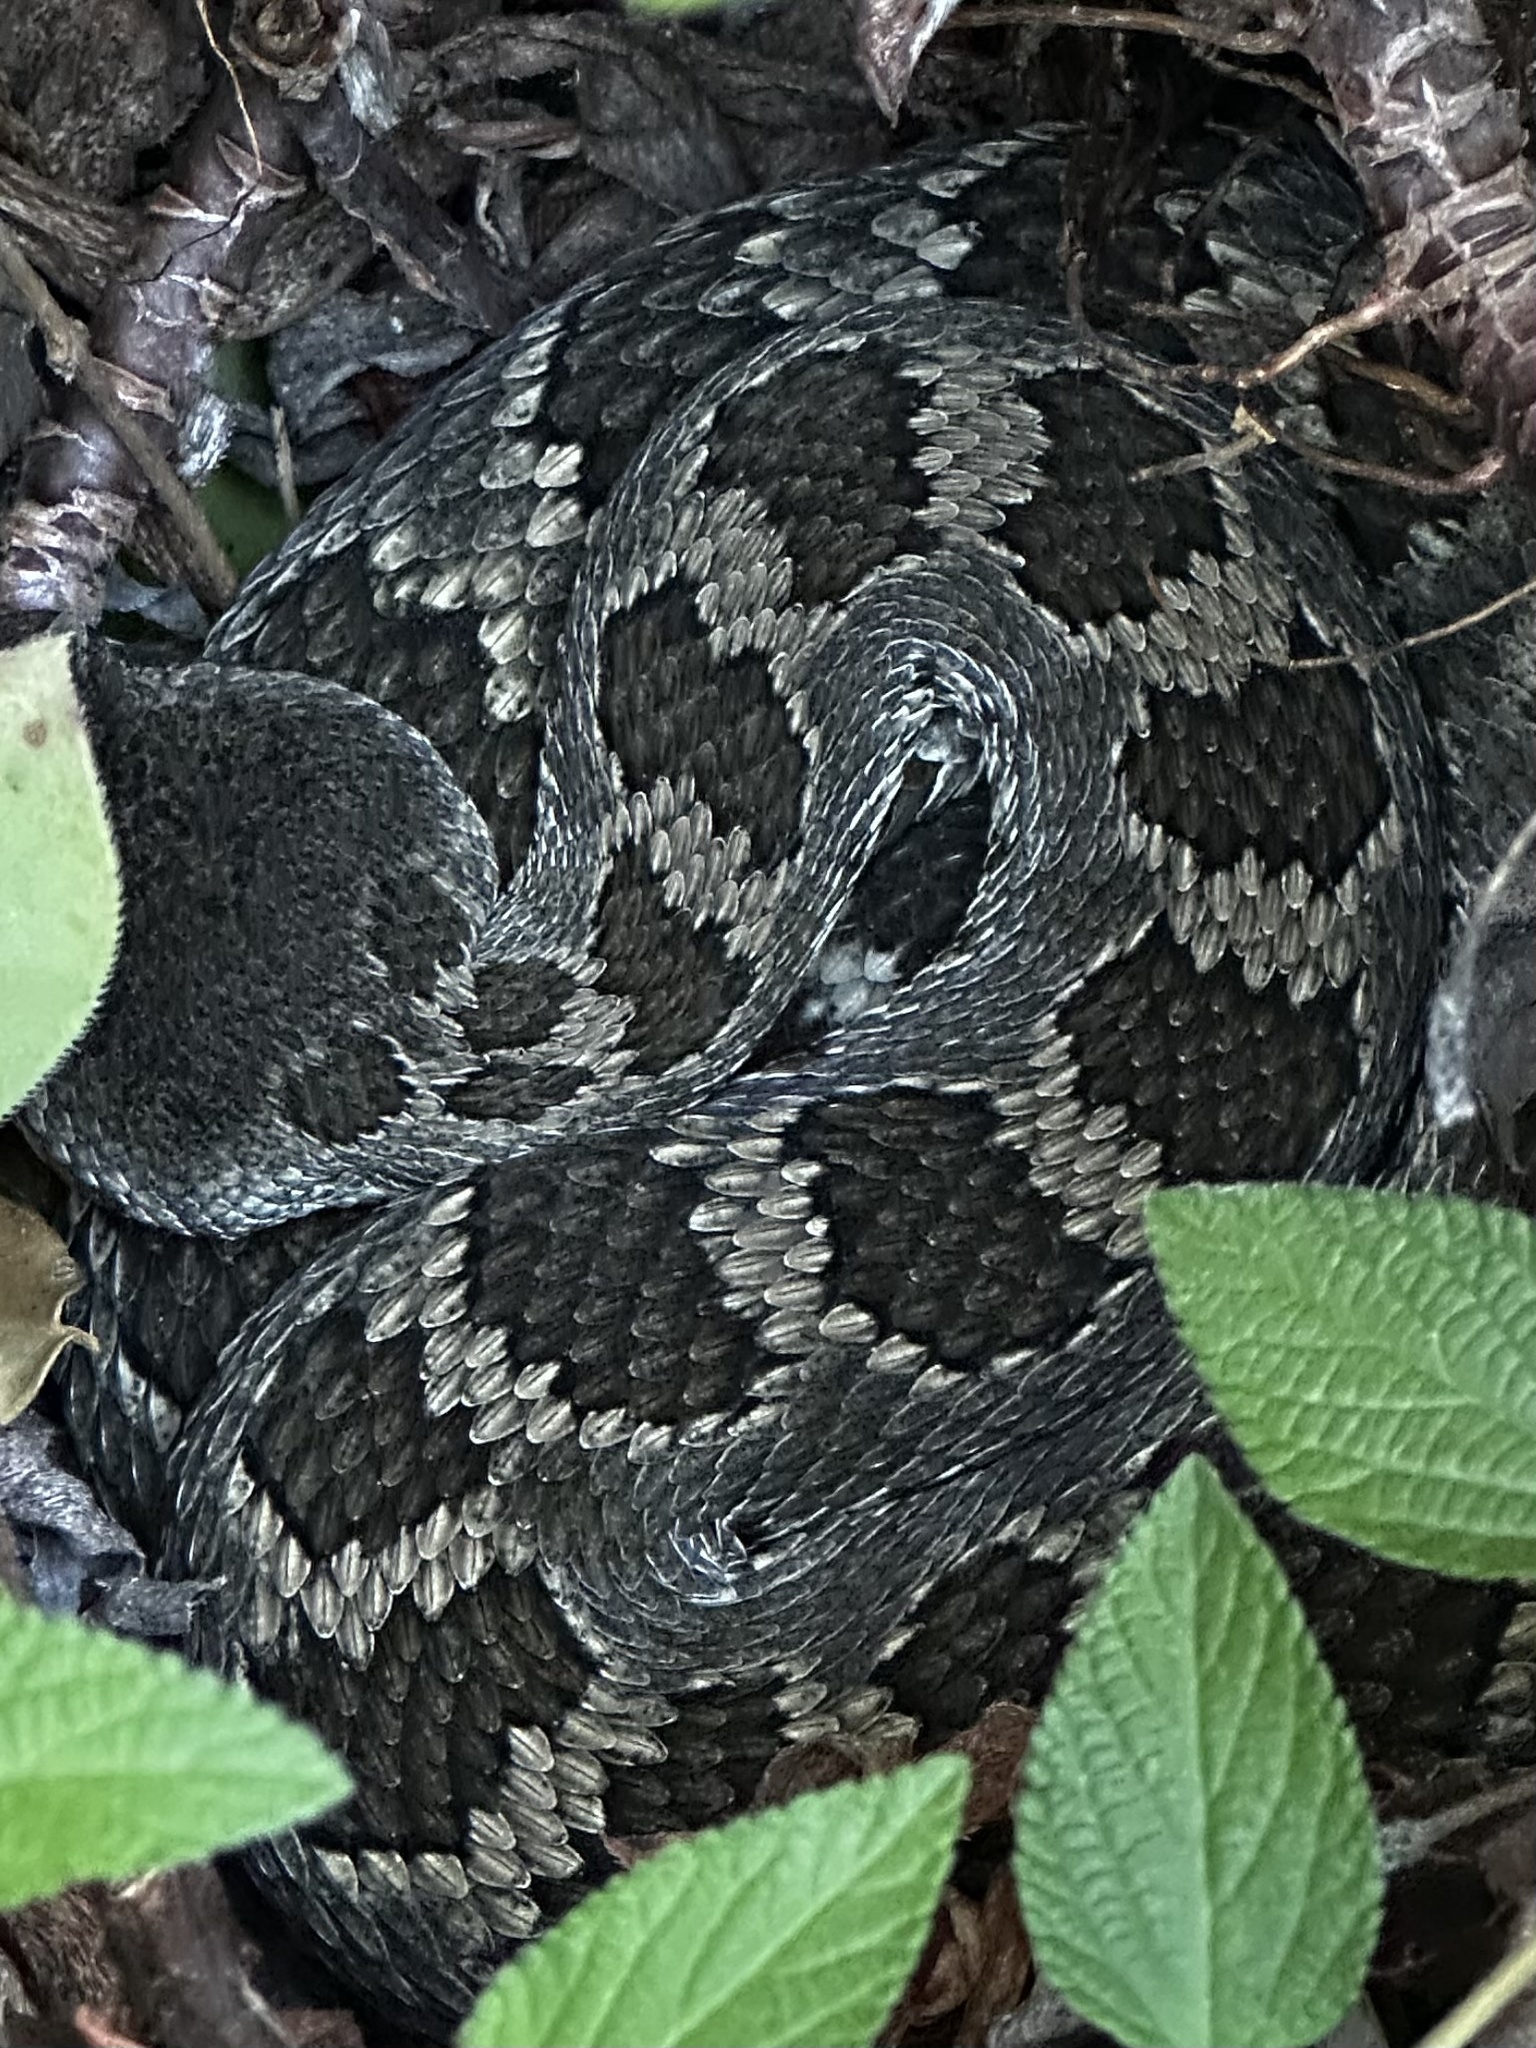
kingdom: Animalia
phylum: Chordata
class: Squamata
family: Viperidae
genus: Crotalus
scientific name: Crotalus oreganus
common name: Abyssus
